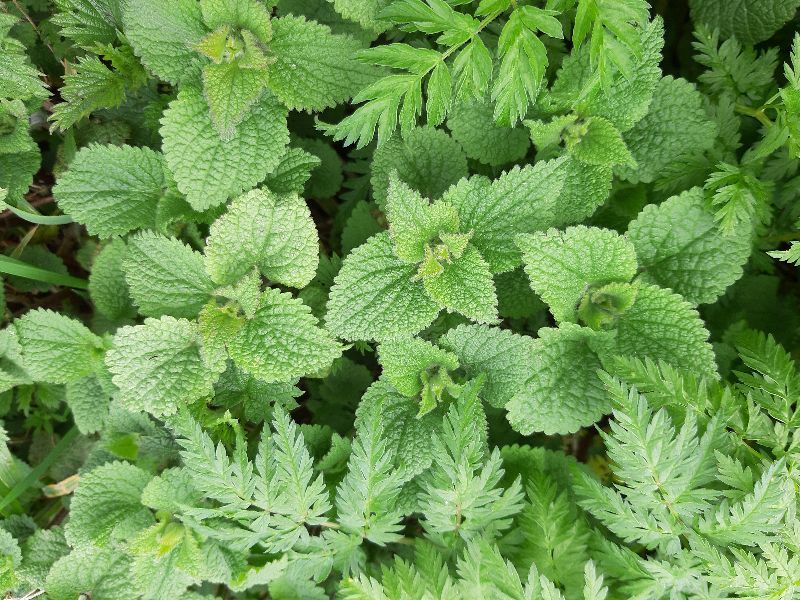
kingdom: Plantae
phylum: Tracheophyta
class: Magnoliopsida
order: Lamiales
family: Lamiaceae
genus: Lamium
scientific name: Lamium album
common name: White dead-nettle
